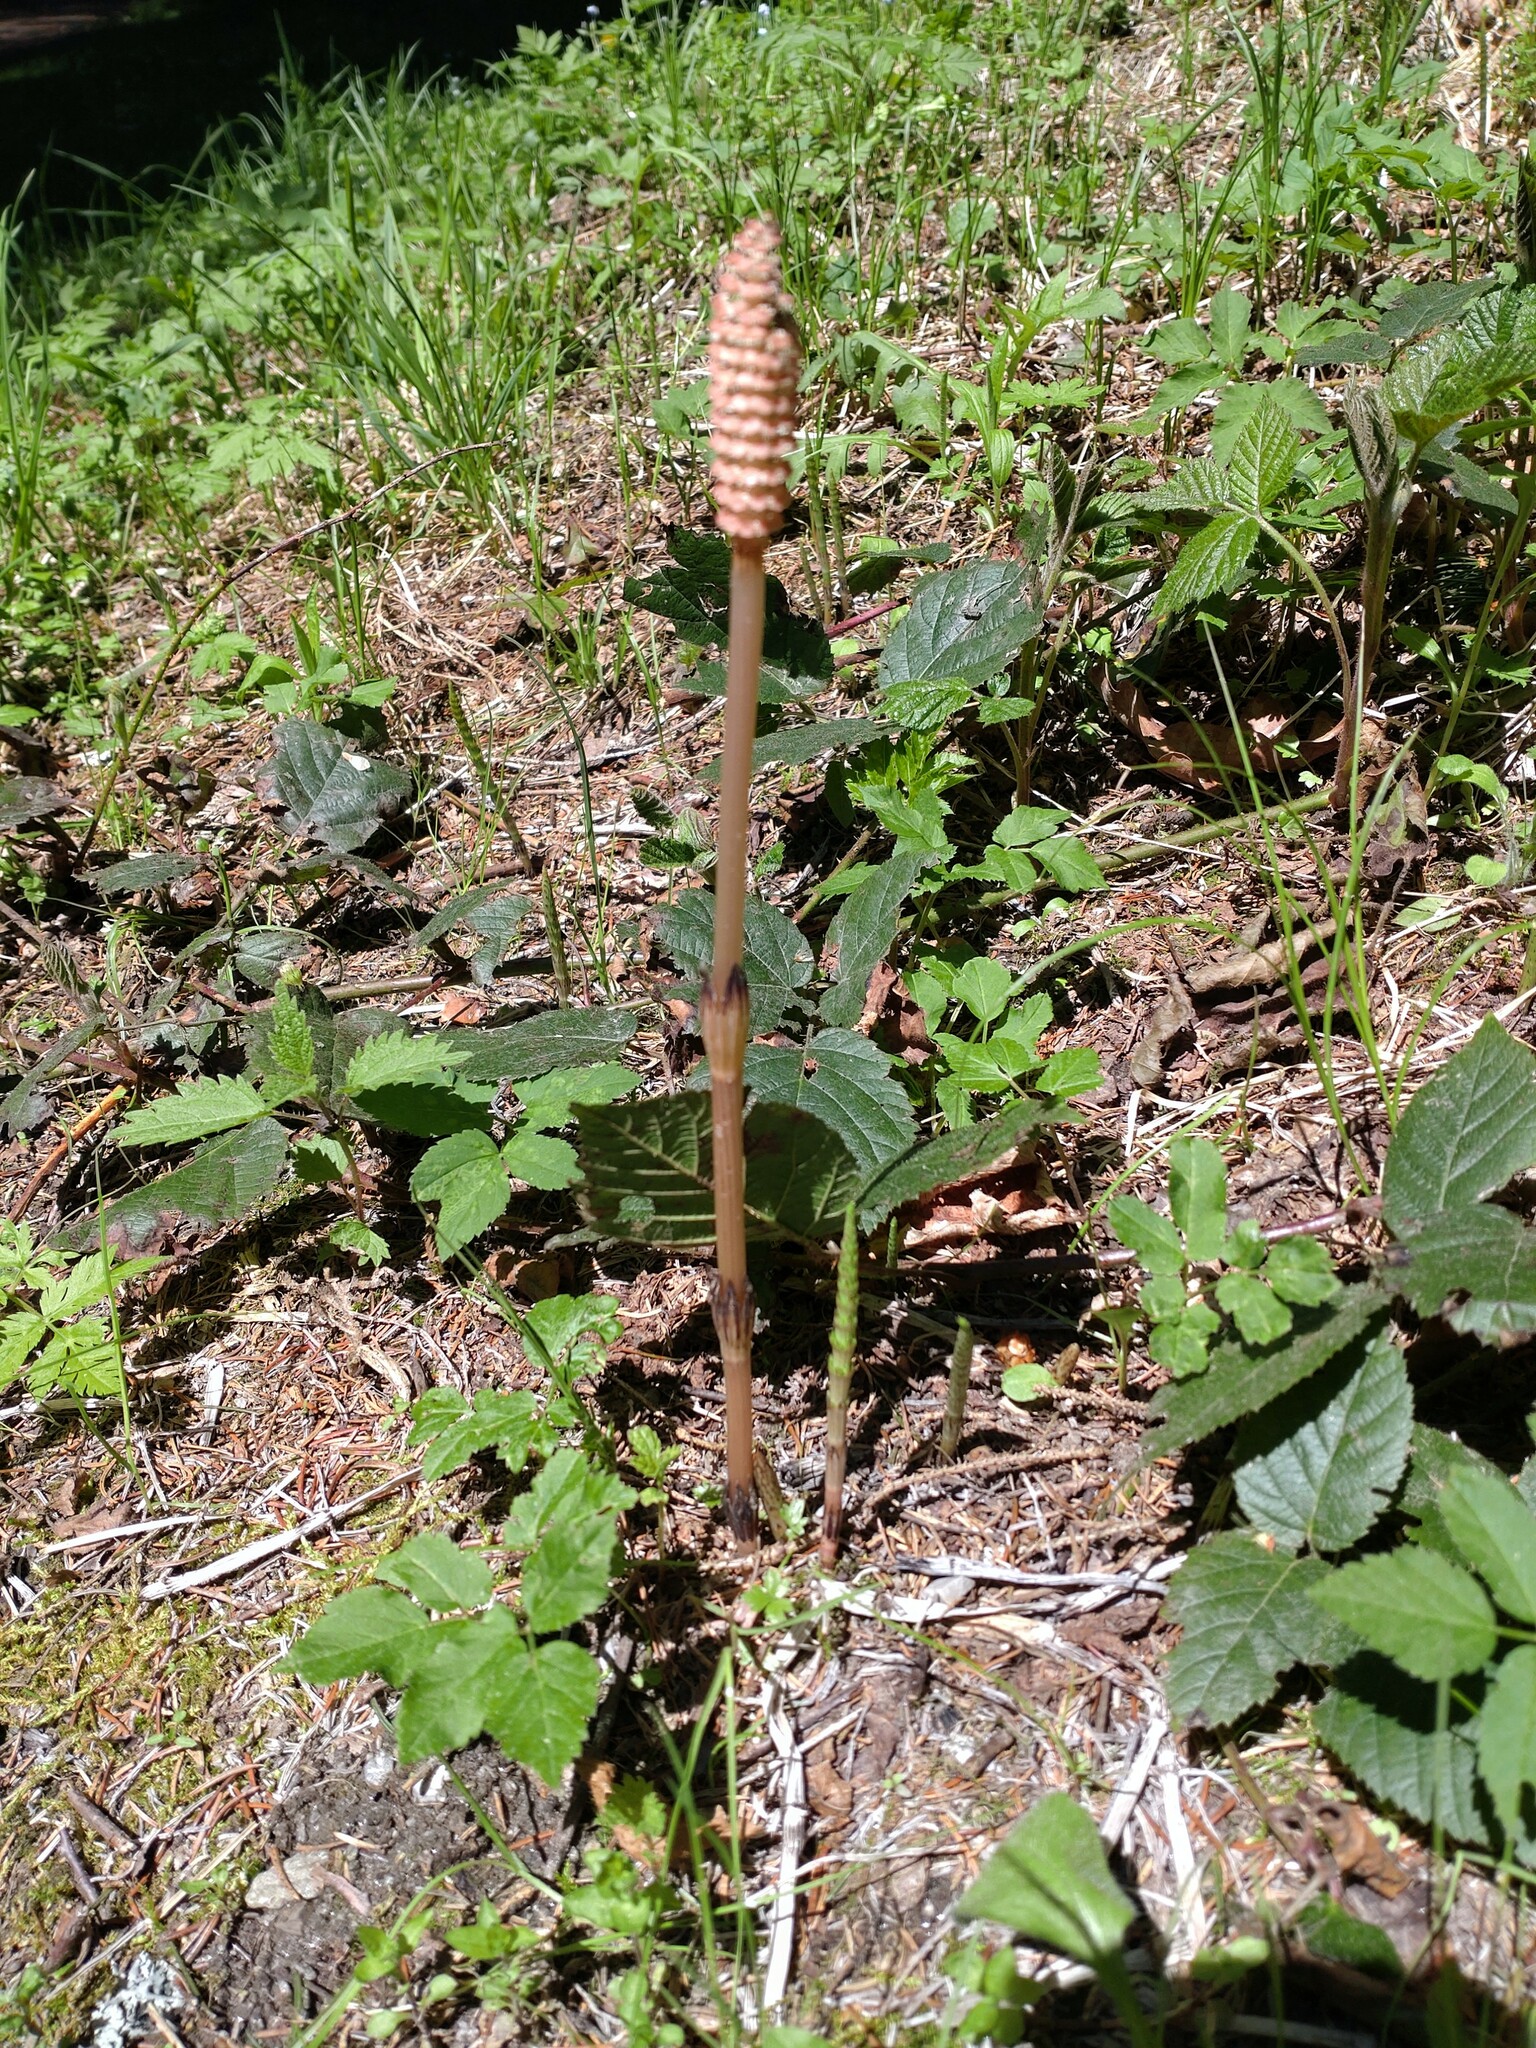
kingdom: Plantae
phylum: Tracheophyta
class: Polypodiopsida
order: Equisetales
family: Equisetaceae
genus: Equisetum
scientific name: Equisetum arvense
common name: Field horsetail
